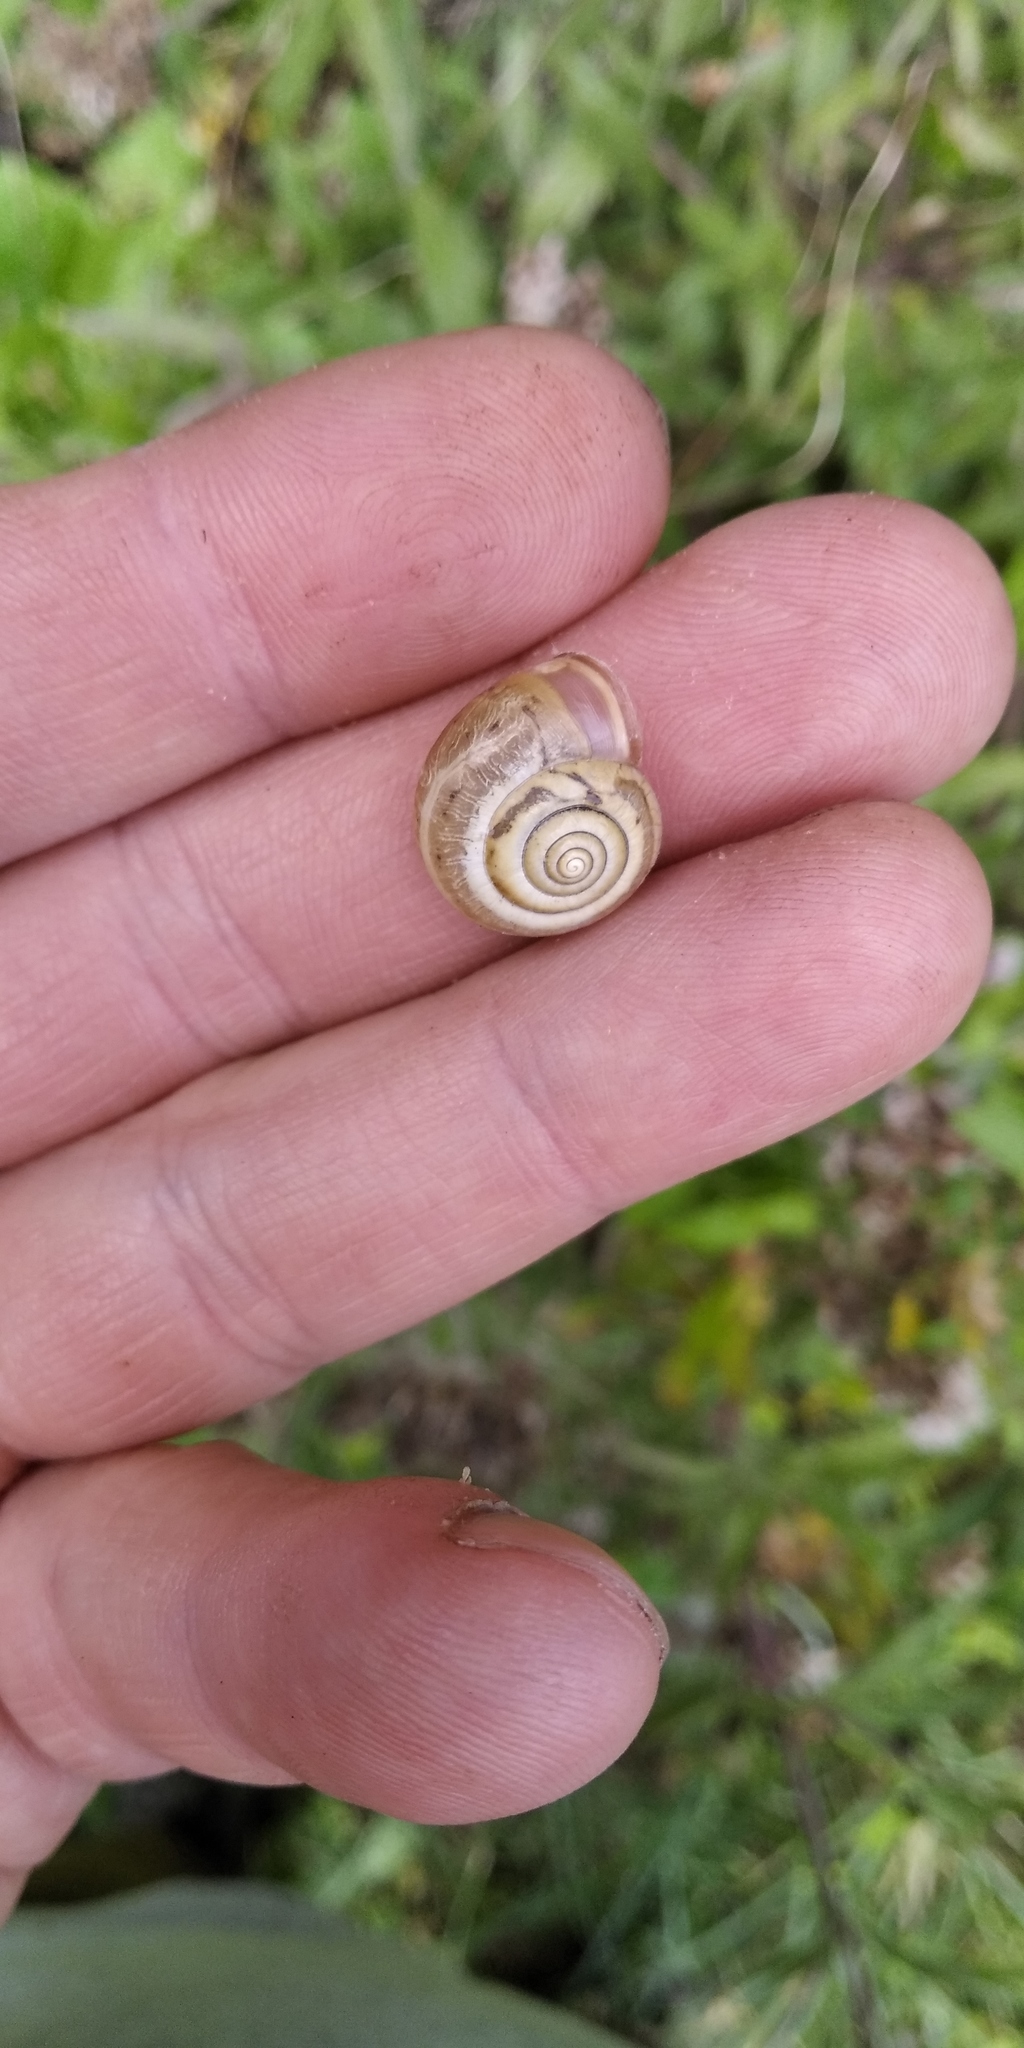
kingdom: Animalia
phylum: Mollusca
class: Gastropoda
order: Stylommatophora
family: Hygromiidae
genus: Monacha
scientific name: Monacha cartusiana
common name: Carthusian snail
